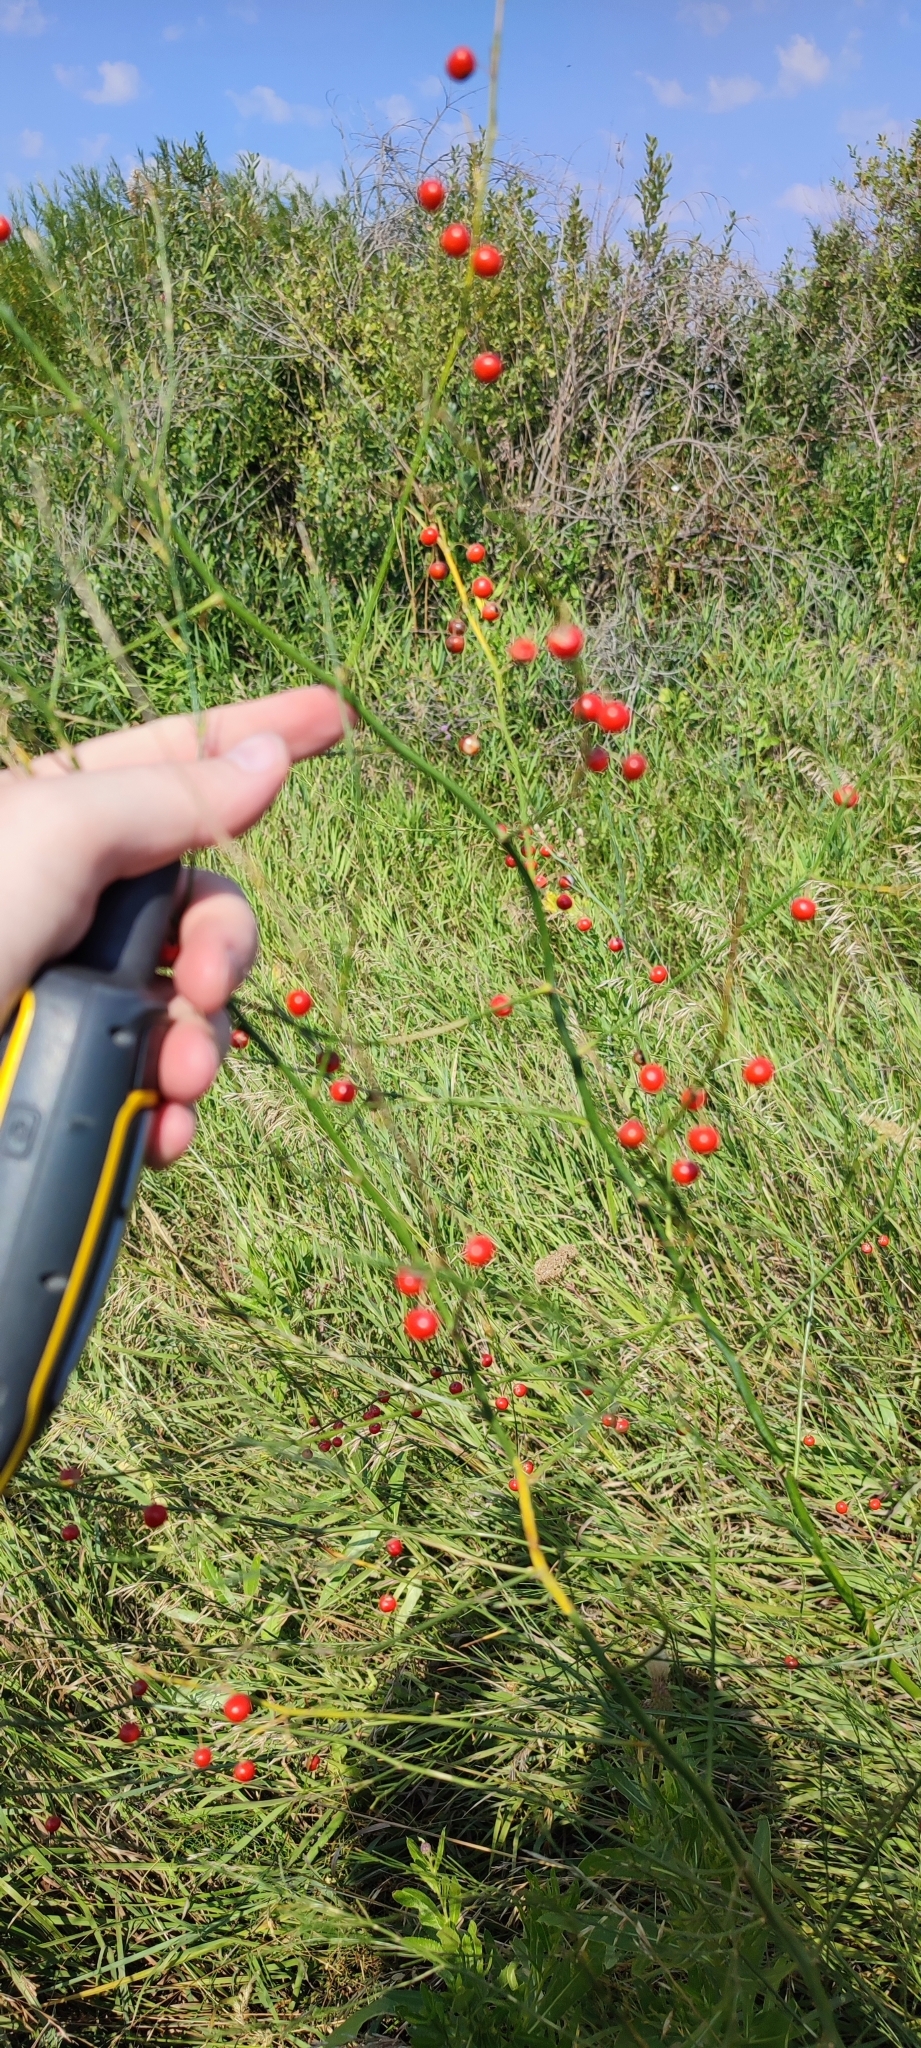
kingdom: Plantae
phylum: Tracheophyta
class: Liliopsida
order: Asparagales
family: Asparagaceae
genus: Asparagus
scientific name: Asparagus officinalis
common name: Garden asparagus
